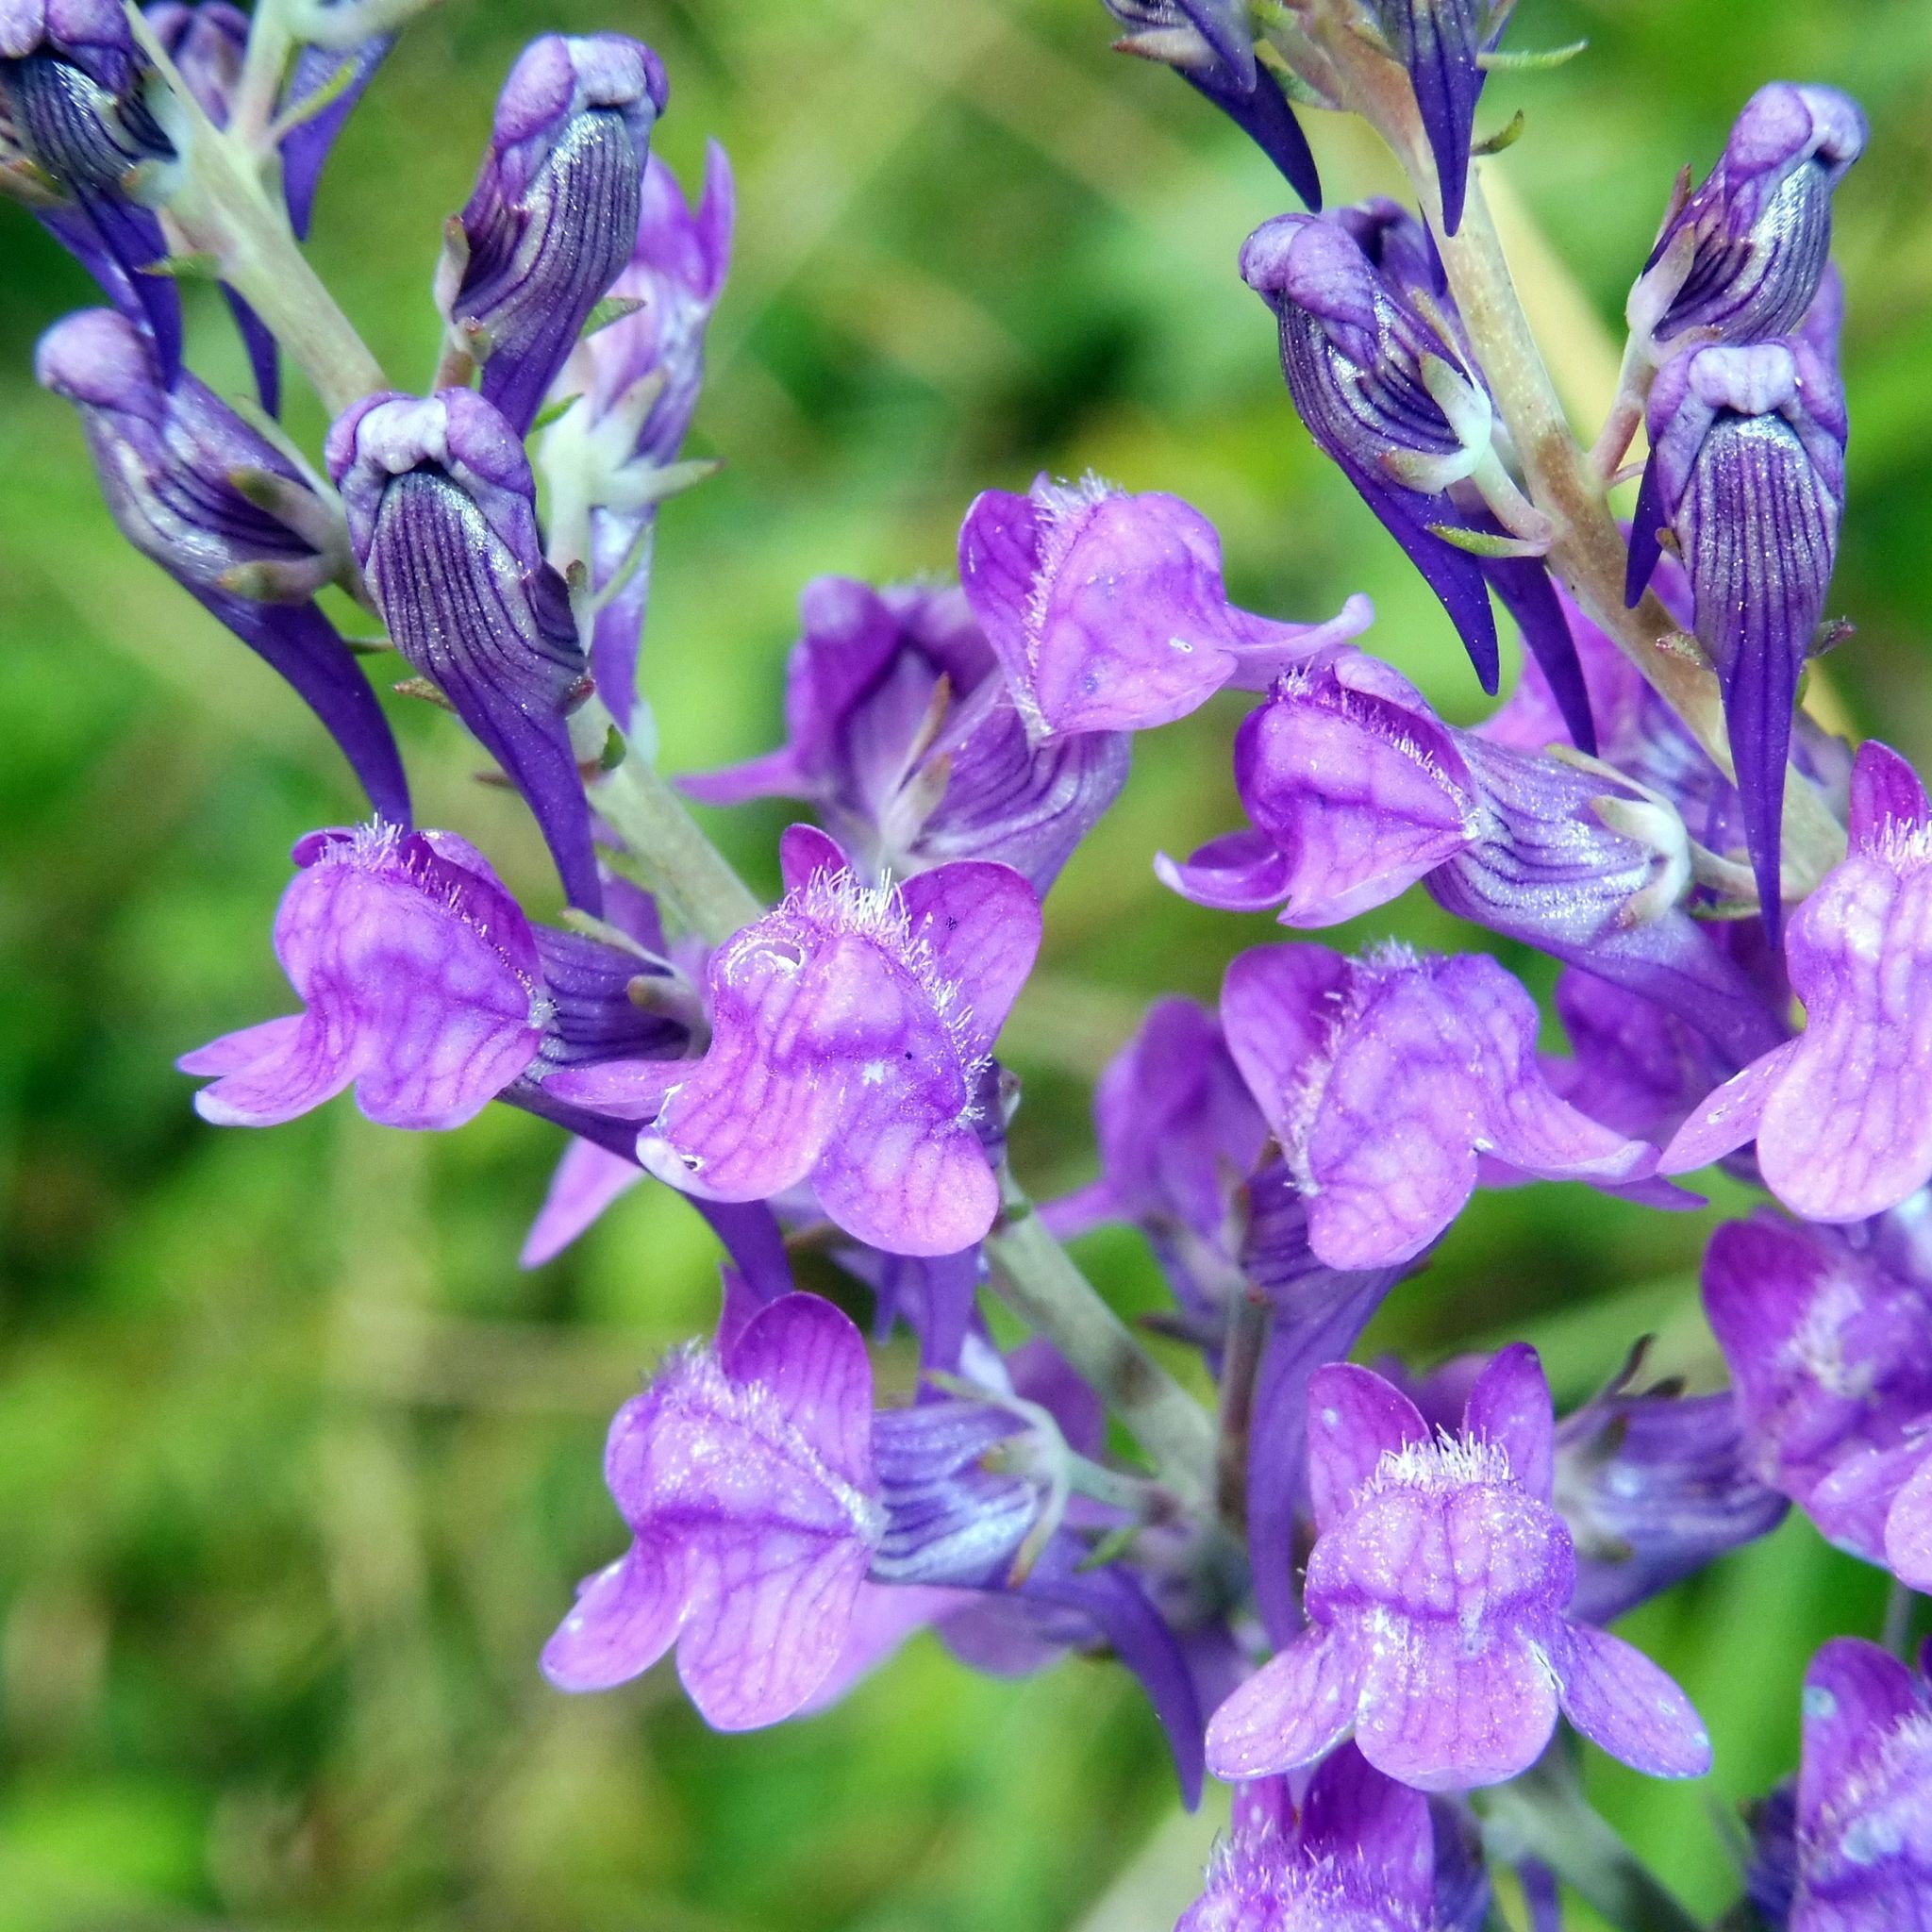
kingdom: Plantae
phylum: Tracheophyta
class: Magnoliopsida
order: Lamiales
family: Plantaginaceae
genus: Linaria
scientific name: Linaria purpurea
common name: Purple toadflax
